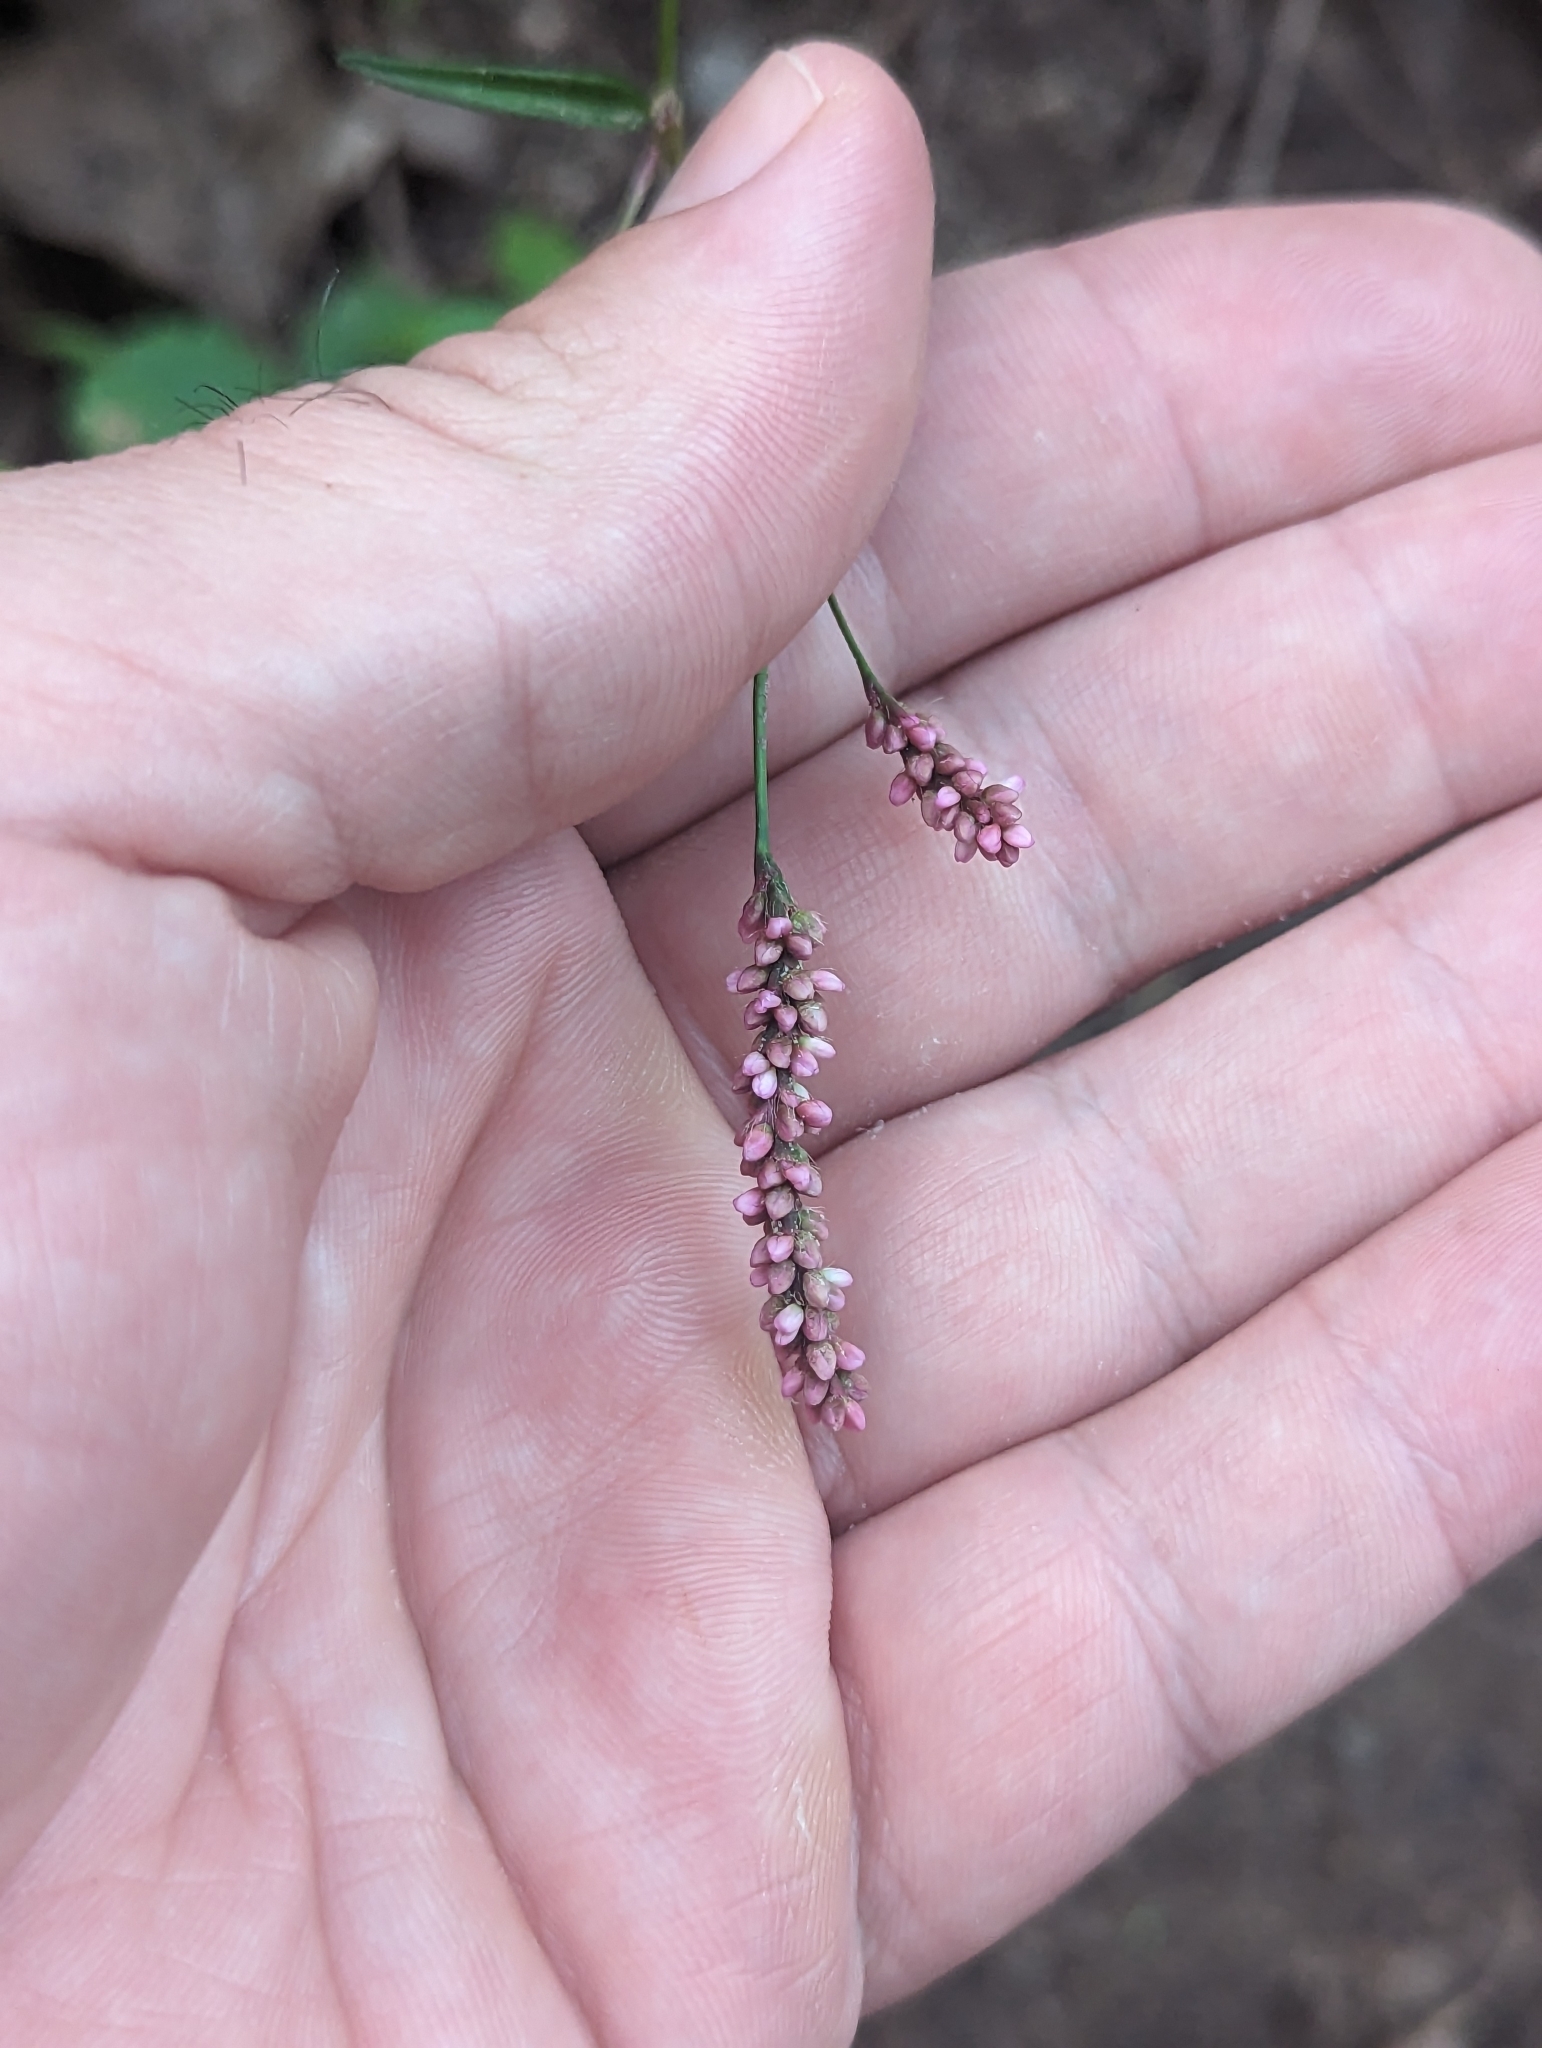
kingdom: Plantae
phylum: Tracheophyta
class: Magnoliopsida
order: Caryophyllales
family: Polygonaceae
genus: Persicaria
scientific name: Persicaria longiseta
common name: Bristly lady's-thumb
